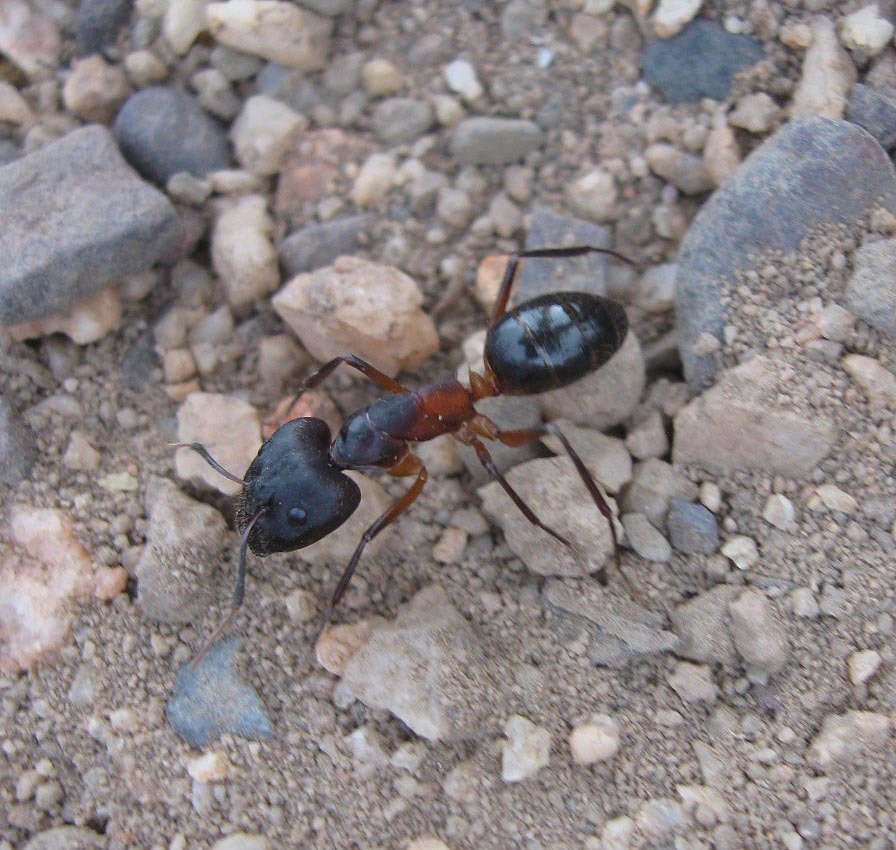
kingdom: Animalia
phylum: Arthropoda
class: Insecta
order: Hymenoptera
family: Formicidae
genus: Camponotus
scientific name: Camponotus baynei
